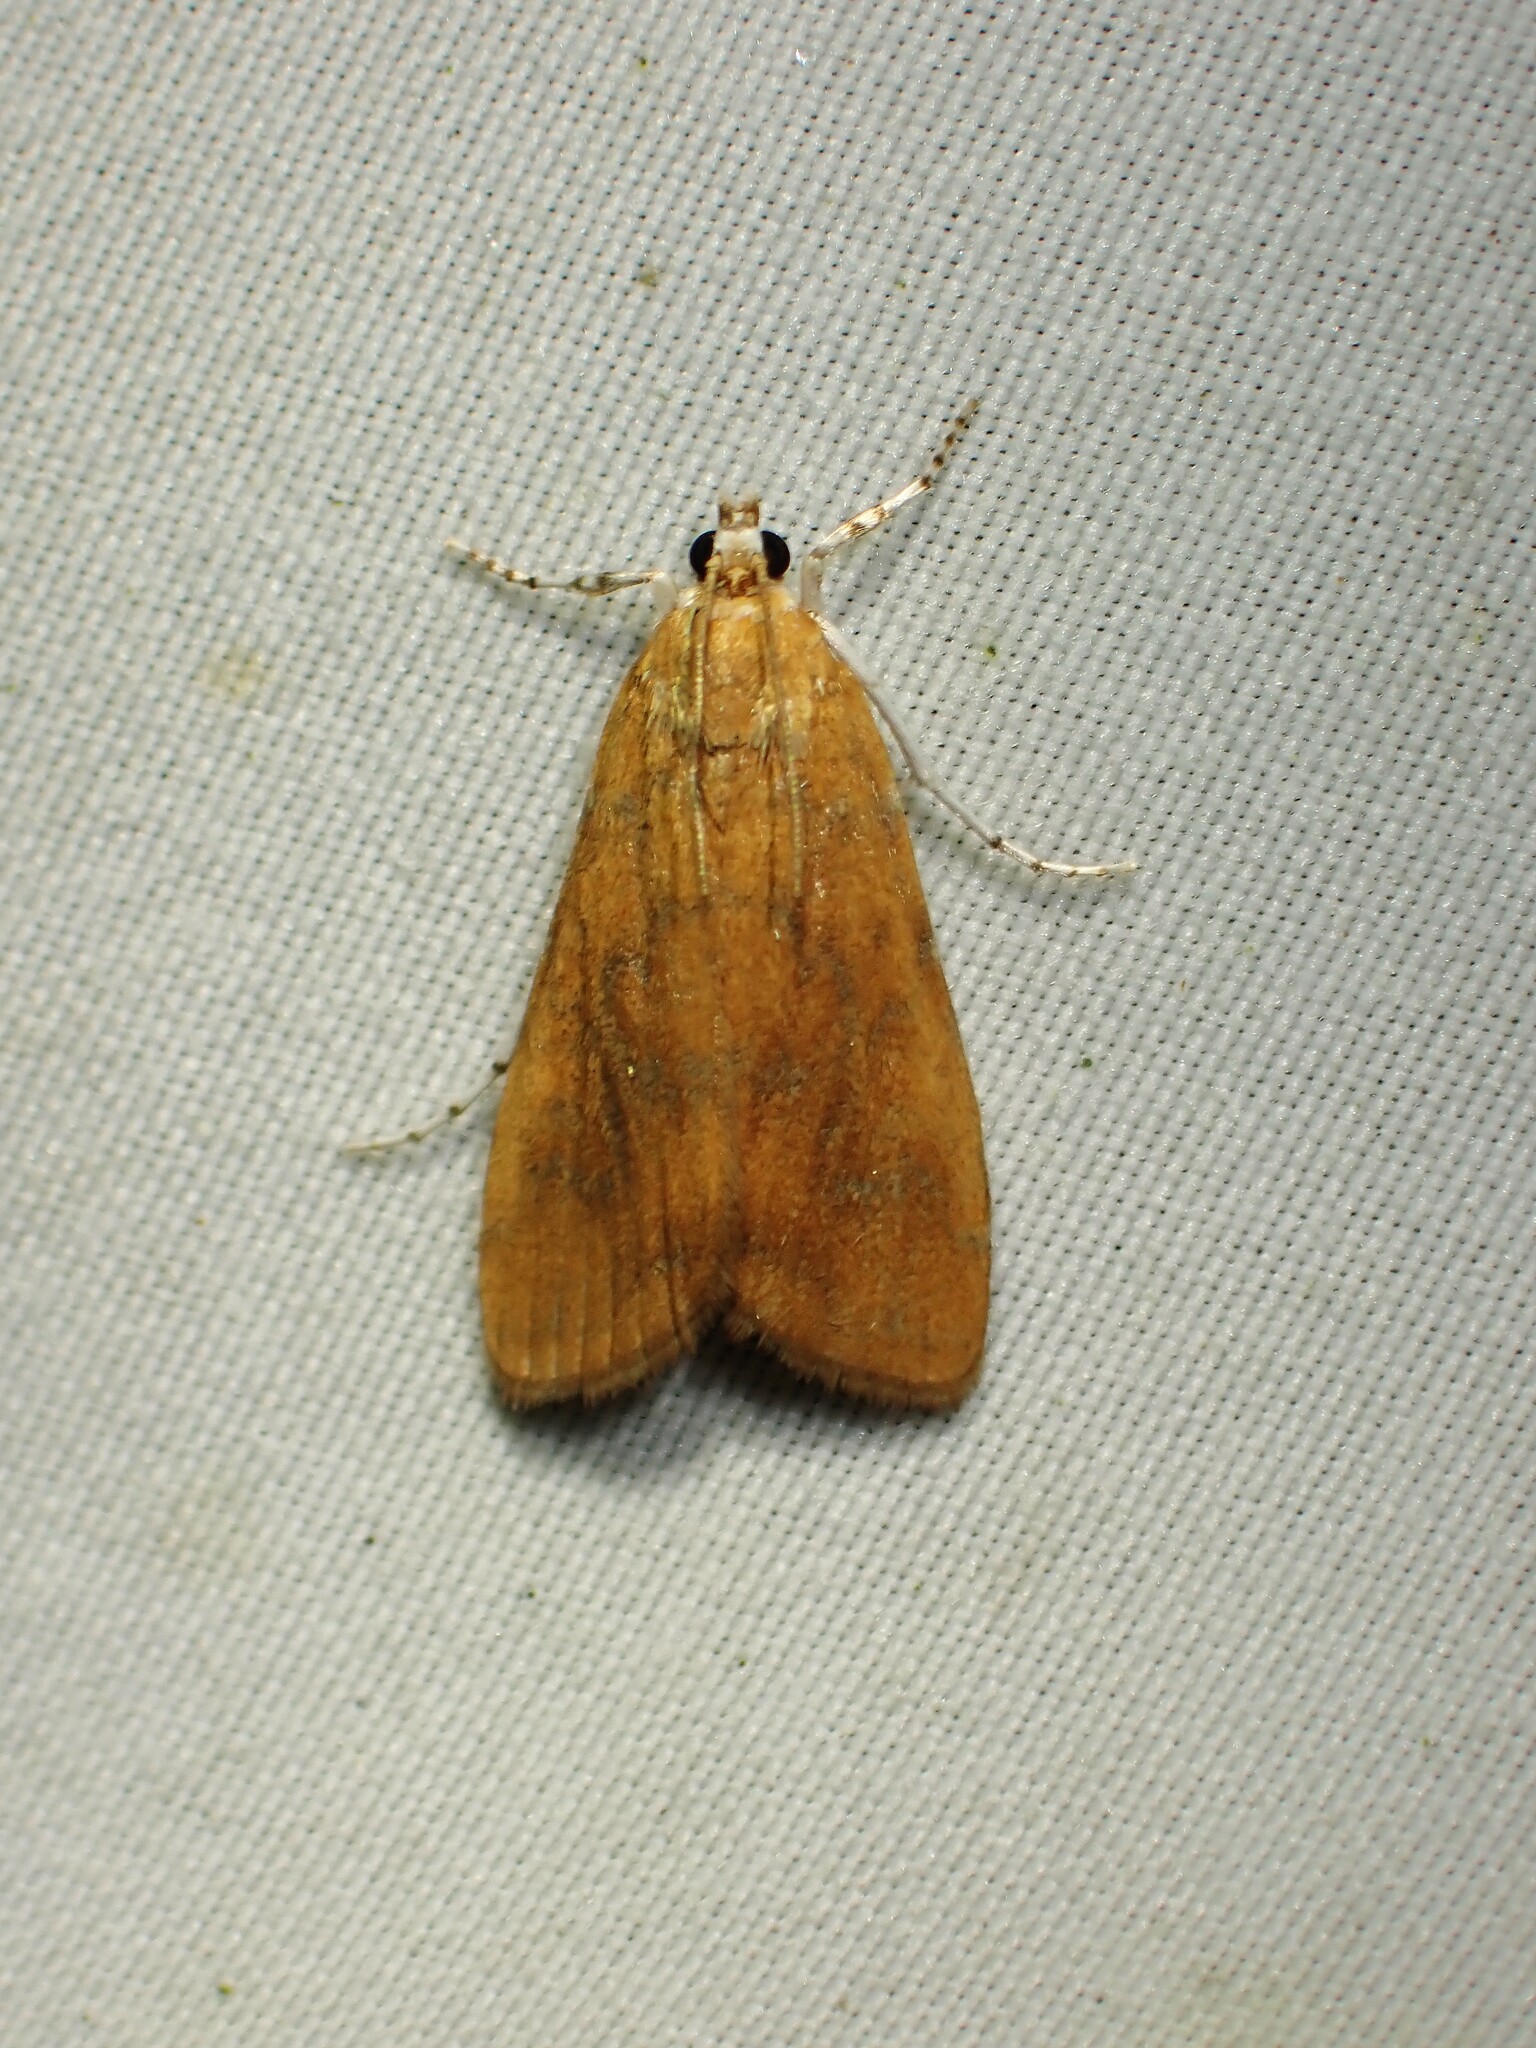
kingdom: Animalia
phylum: Arthropoda
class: Insecta
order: Lepidoptera
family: Crambidae
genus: Elophila
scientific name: Elophila gyralis
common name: Waterlily borer moth
